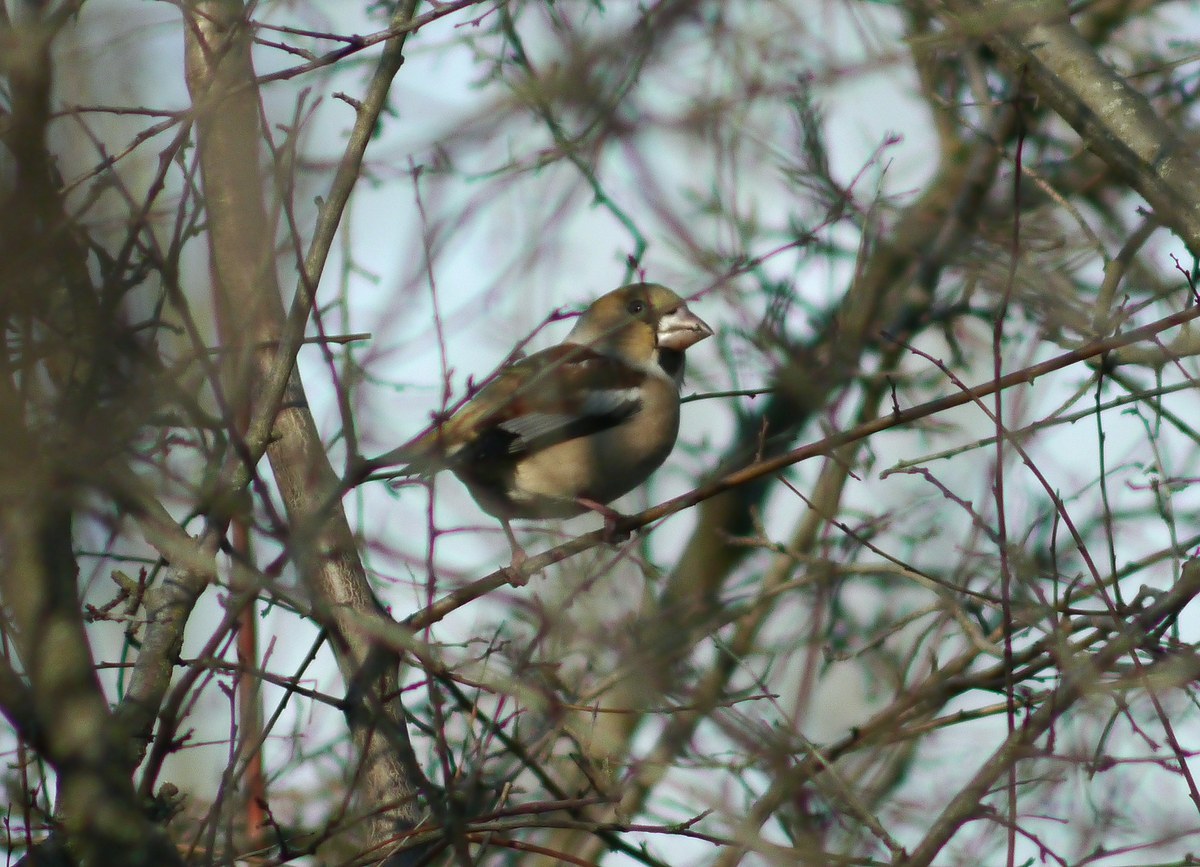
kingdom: Animalia
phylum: Chordata
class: Aves
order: Passeriformes
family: Fringillidae
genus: Coccothraustes
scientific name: Coccothraustes coccothraustes
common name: Hawfinch
